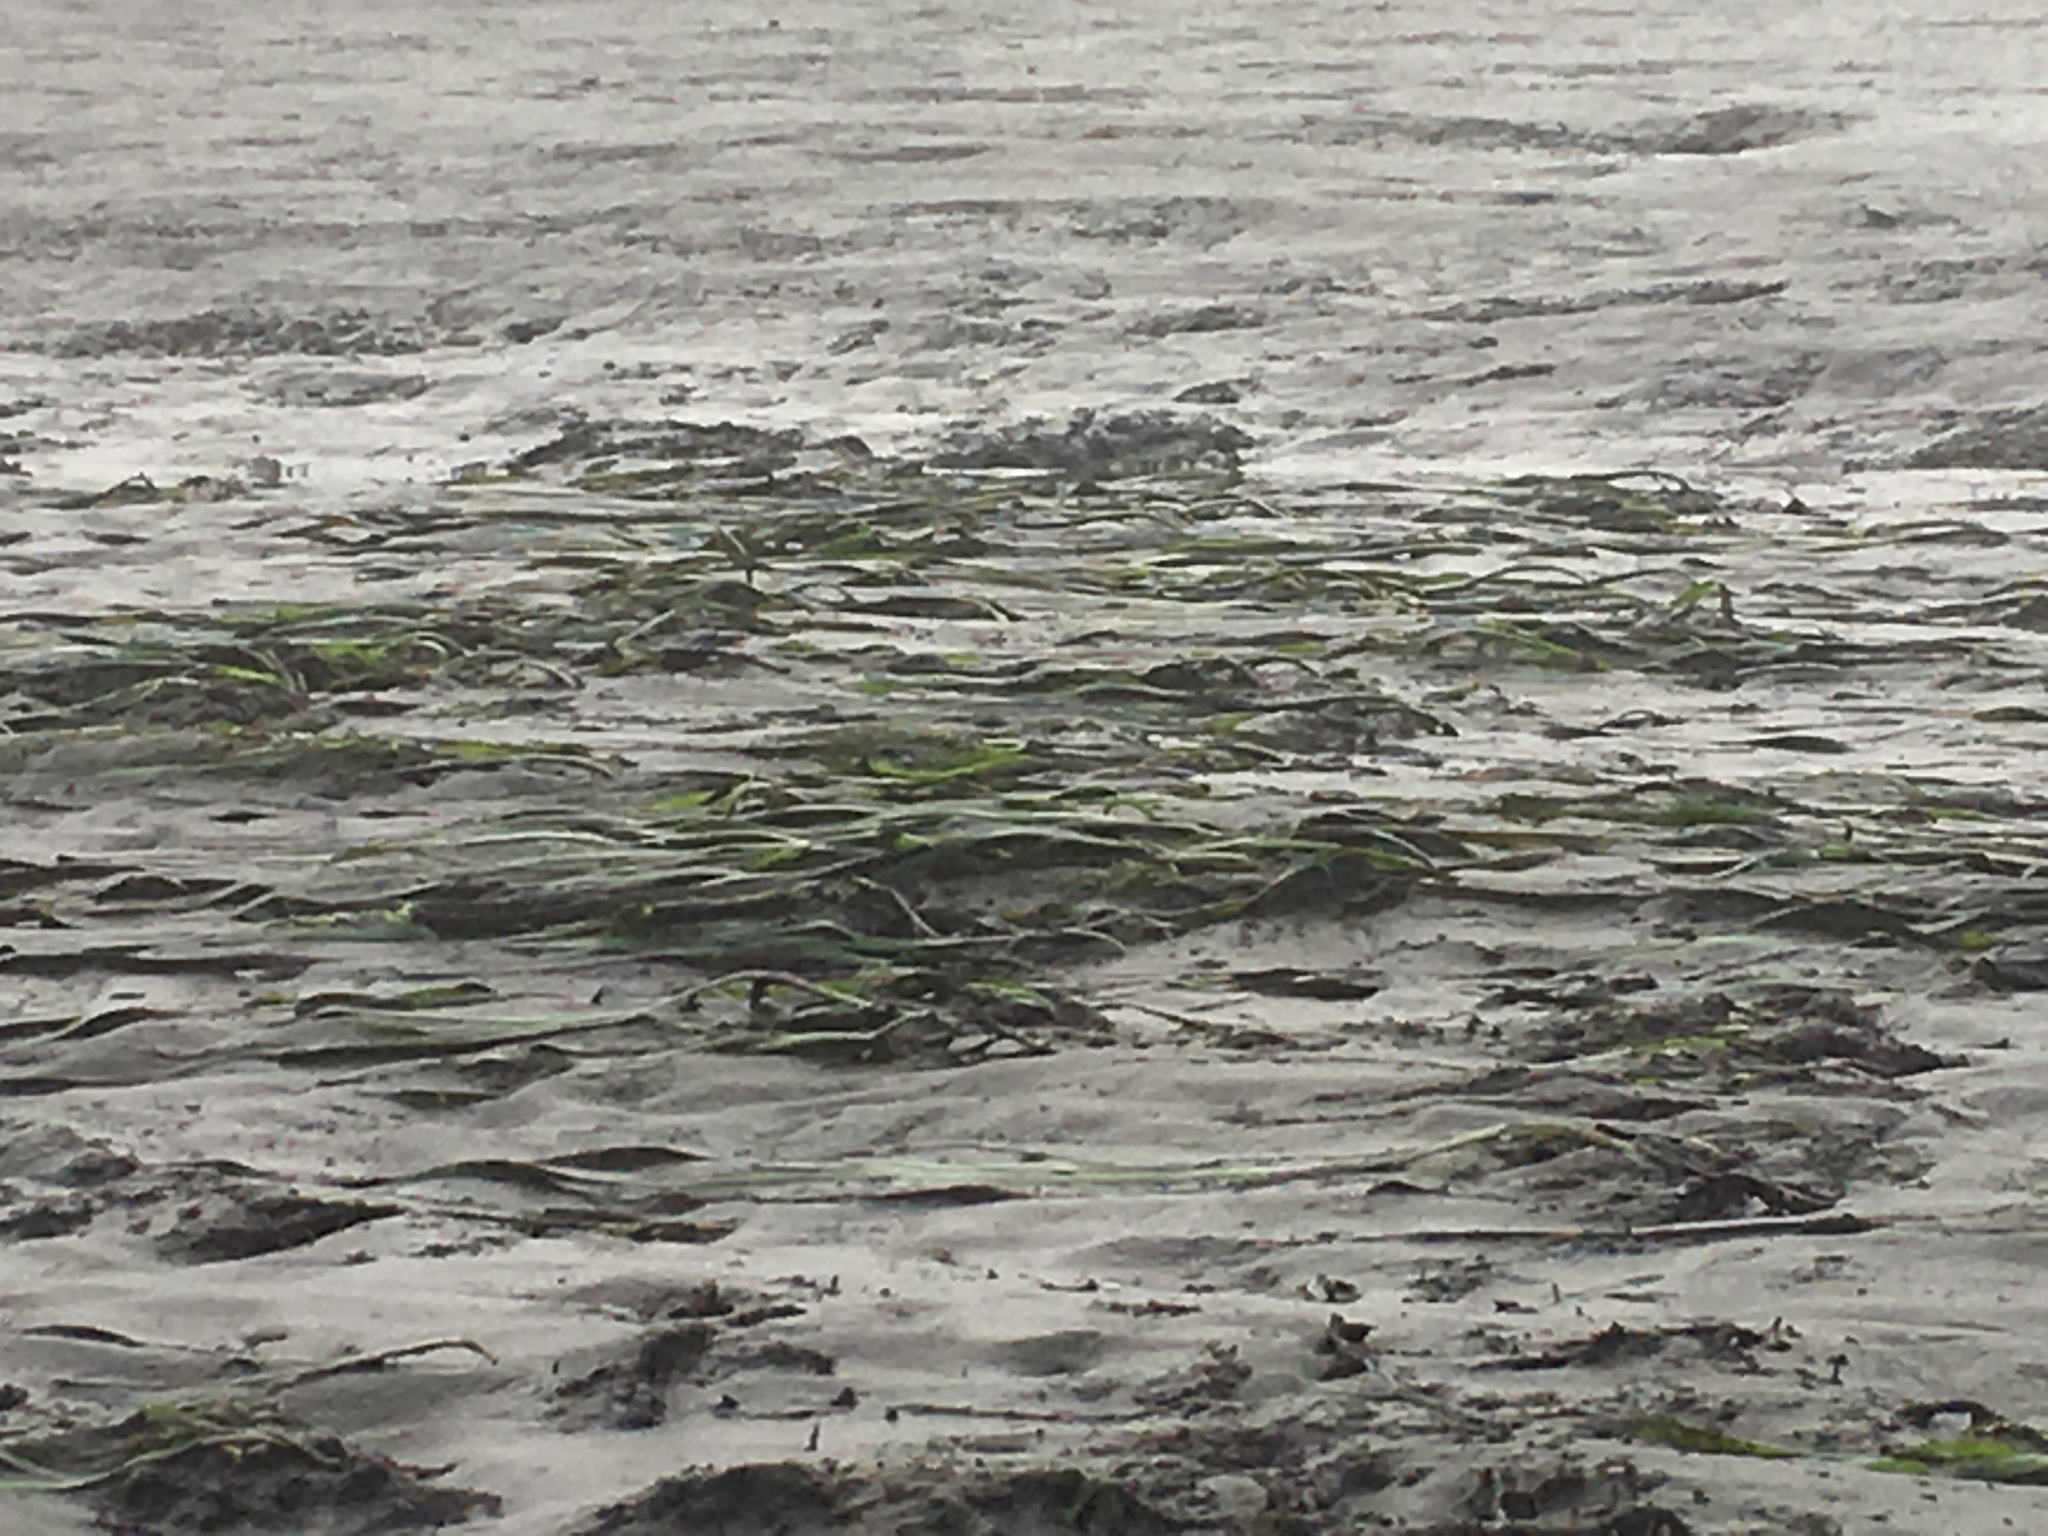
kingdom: Plantae
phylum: Tracheophyta
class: Liliopsida
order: Alismatales
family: Zosteraceae
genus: Zostera
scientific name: Zostera marina
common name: Eelgrass
